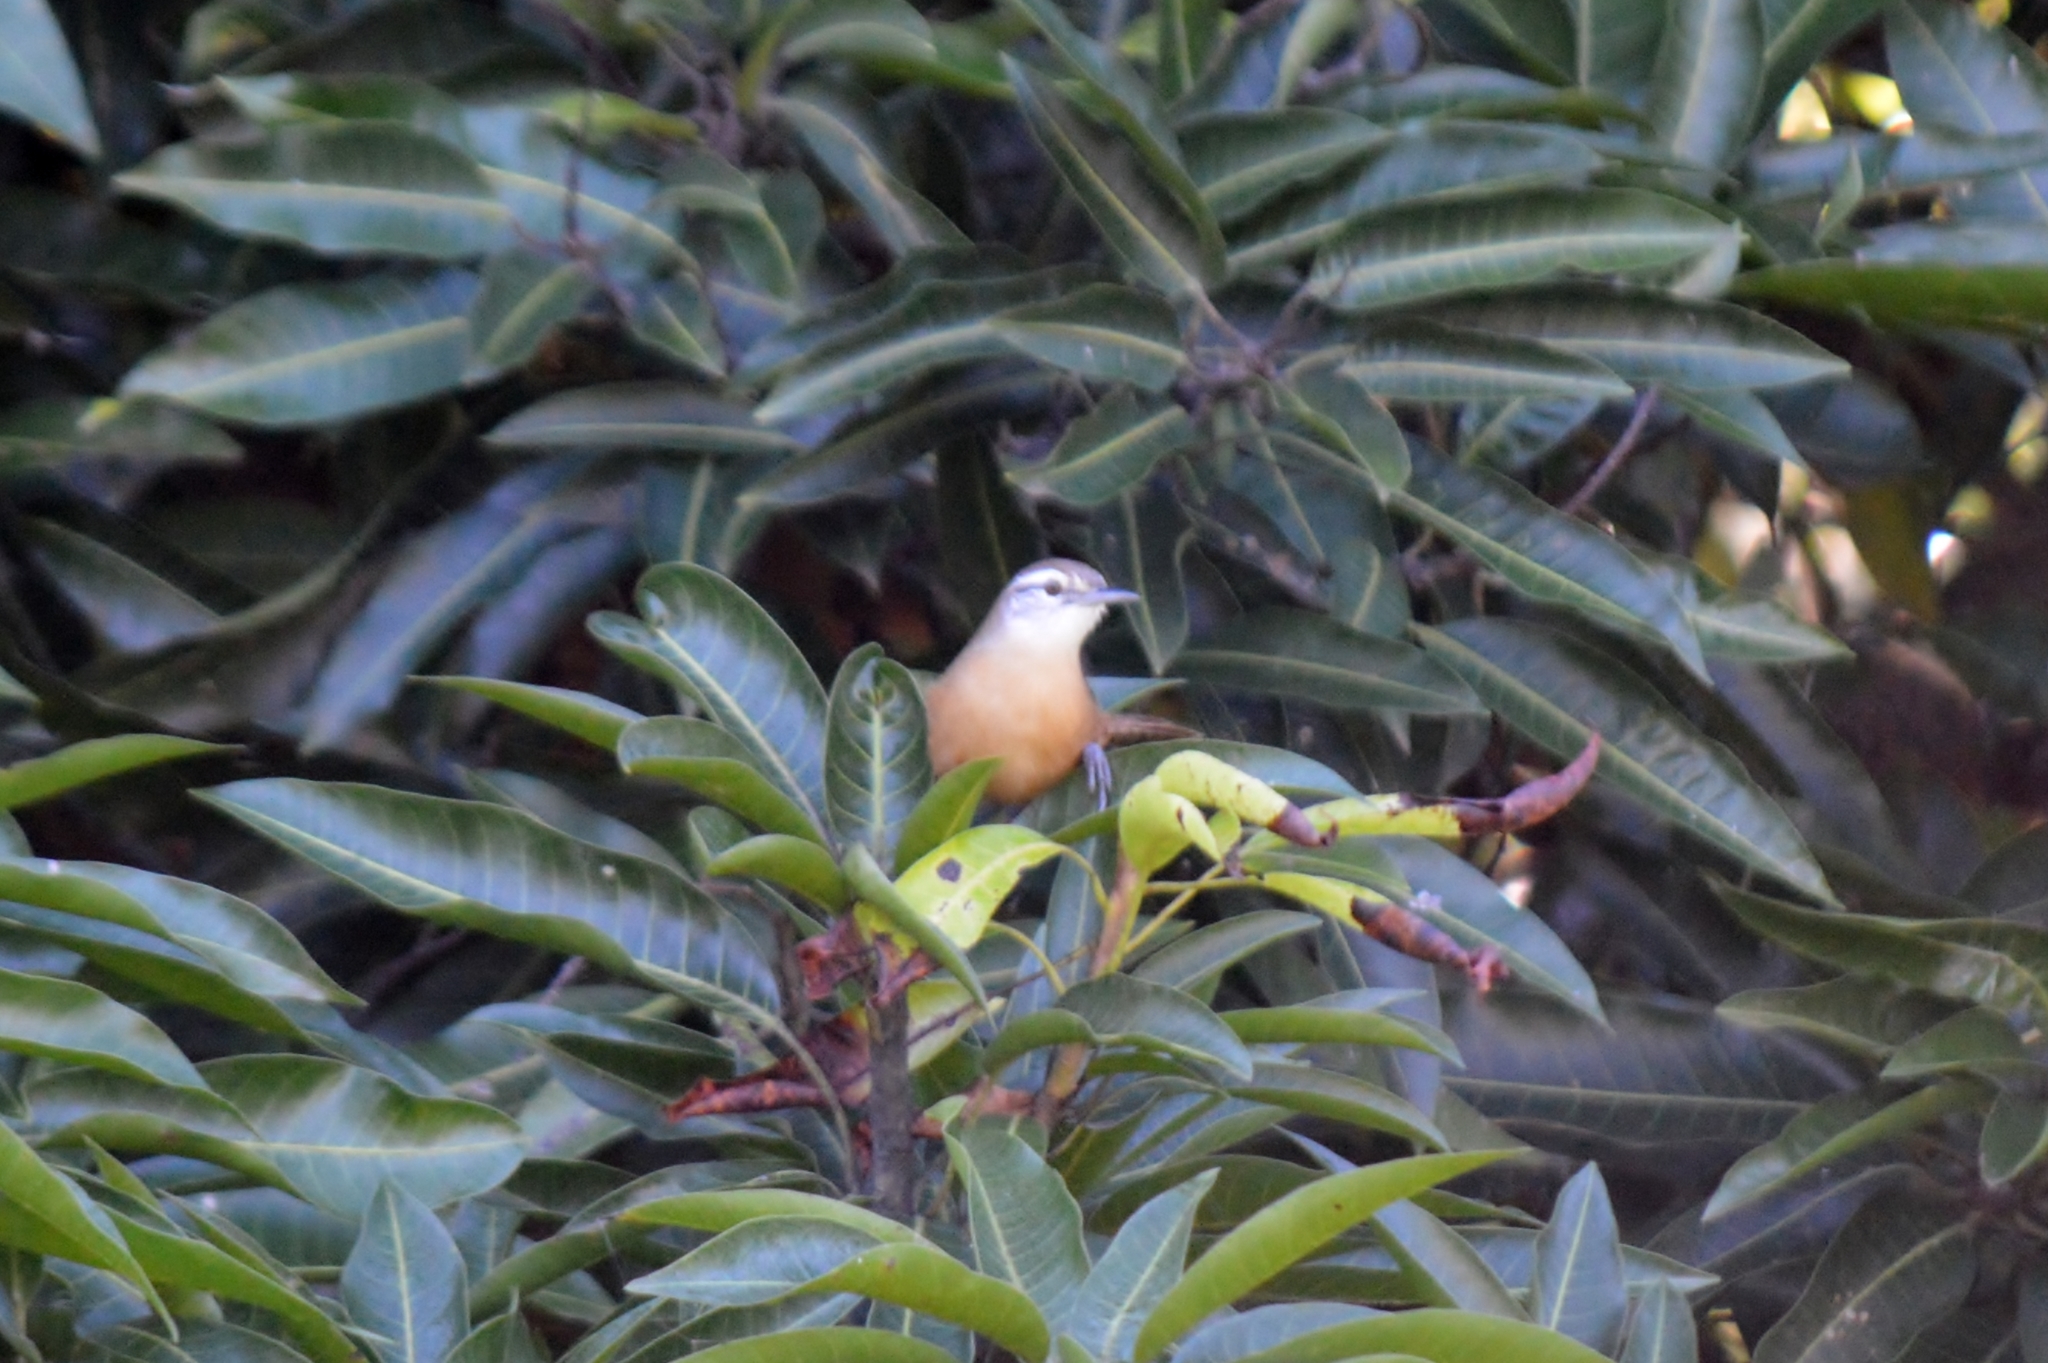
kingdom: Animalia
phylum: Chordata
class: Aves
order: Passeriformes
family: Troglodytidae
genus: Cantorchilus
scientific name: Cantorchilus leucotis
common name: Buff-breasted wren
